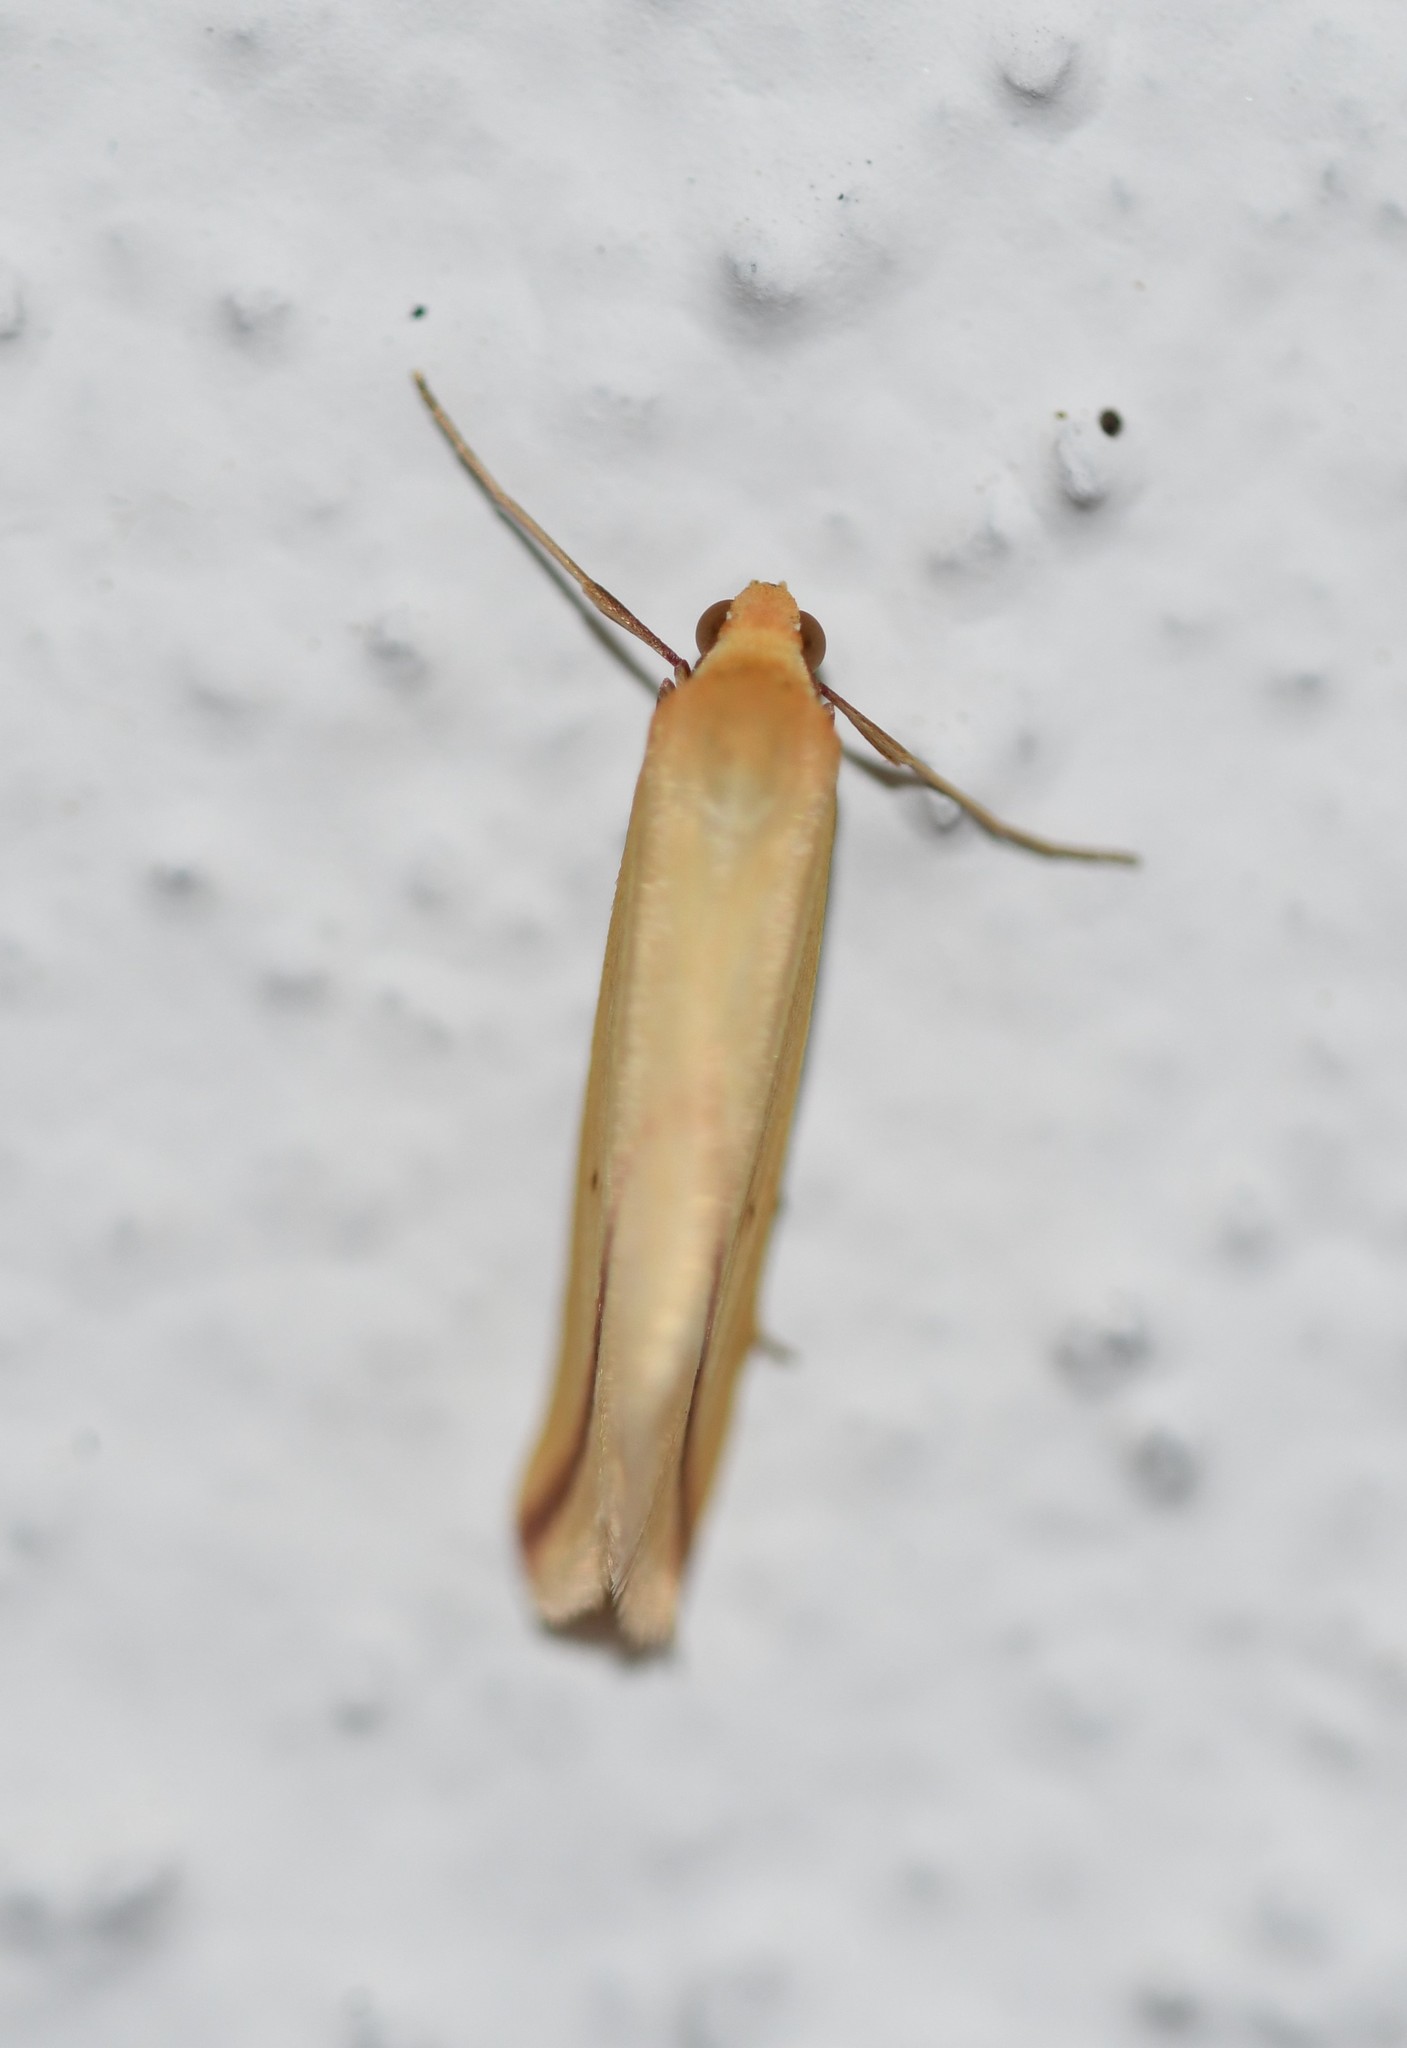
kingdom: Animalia
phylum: Arthropoda
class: Insecta
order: Lepidoptera
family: Geometridae
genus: Rhodometra
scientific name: Rhodometra sacraria
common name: Vestal
